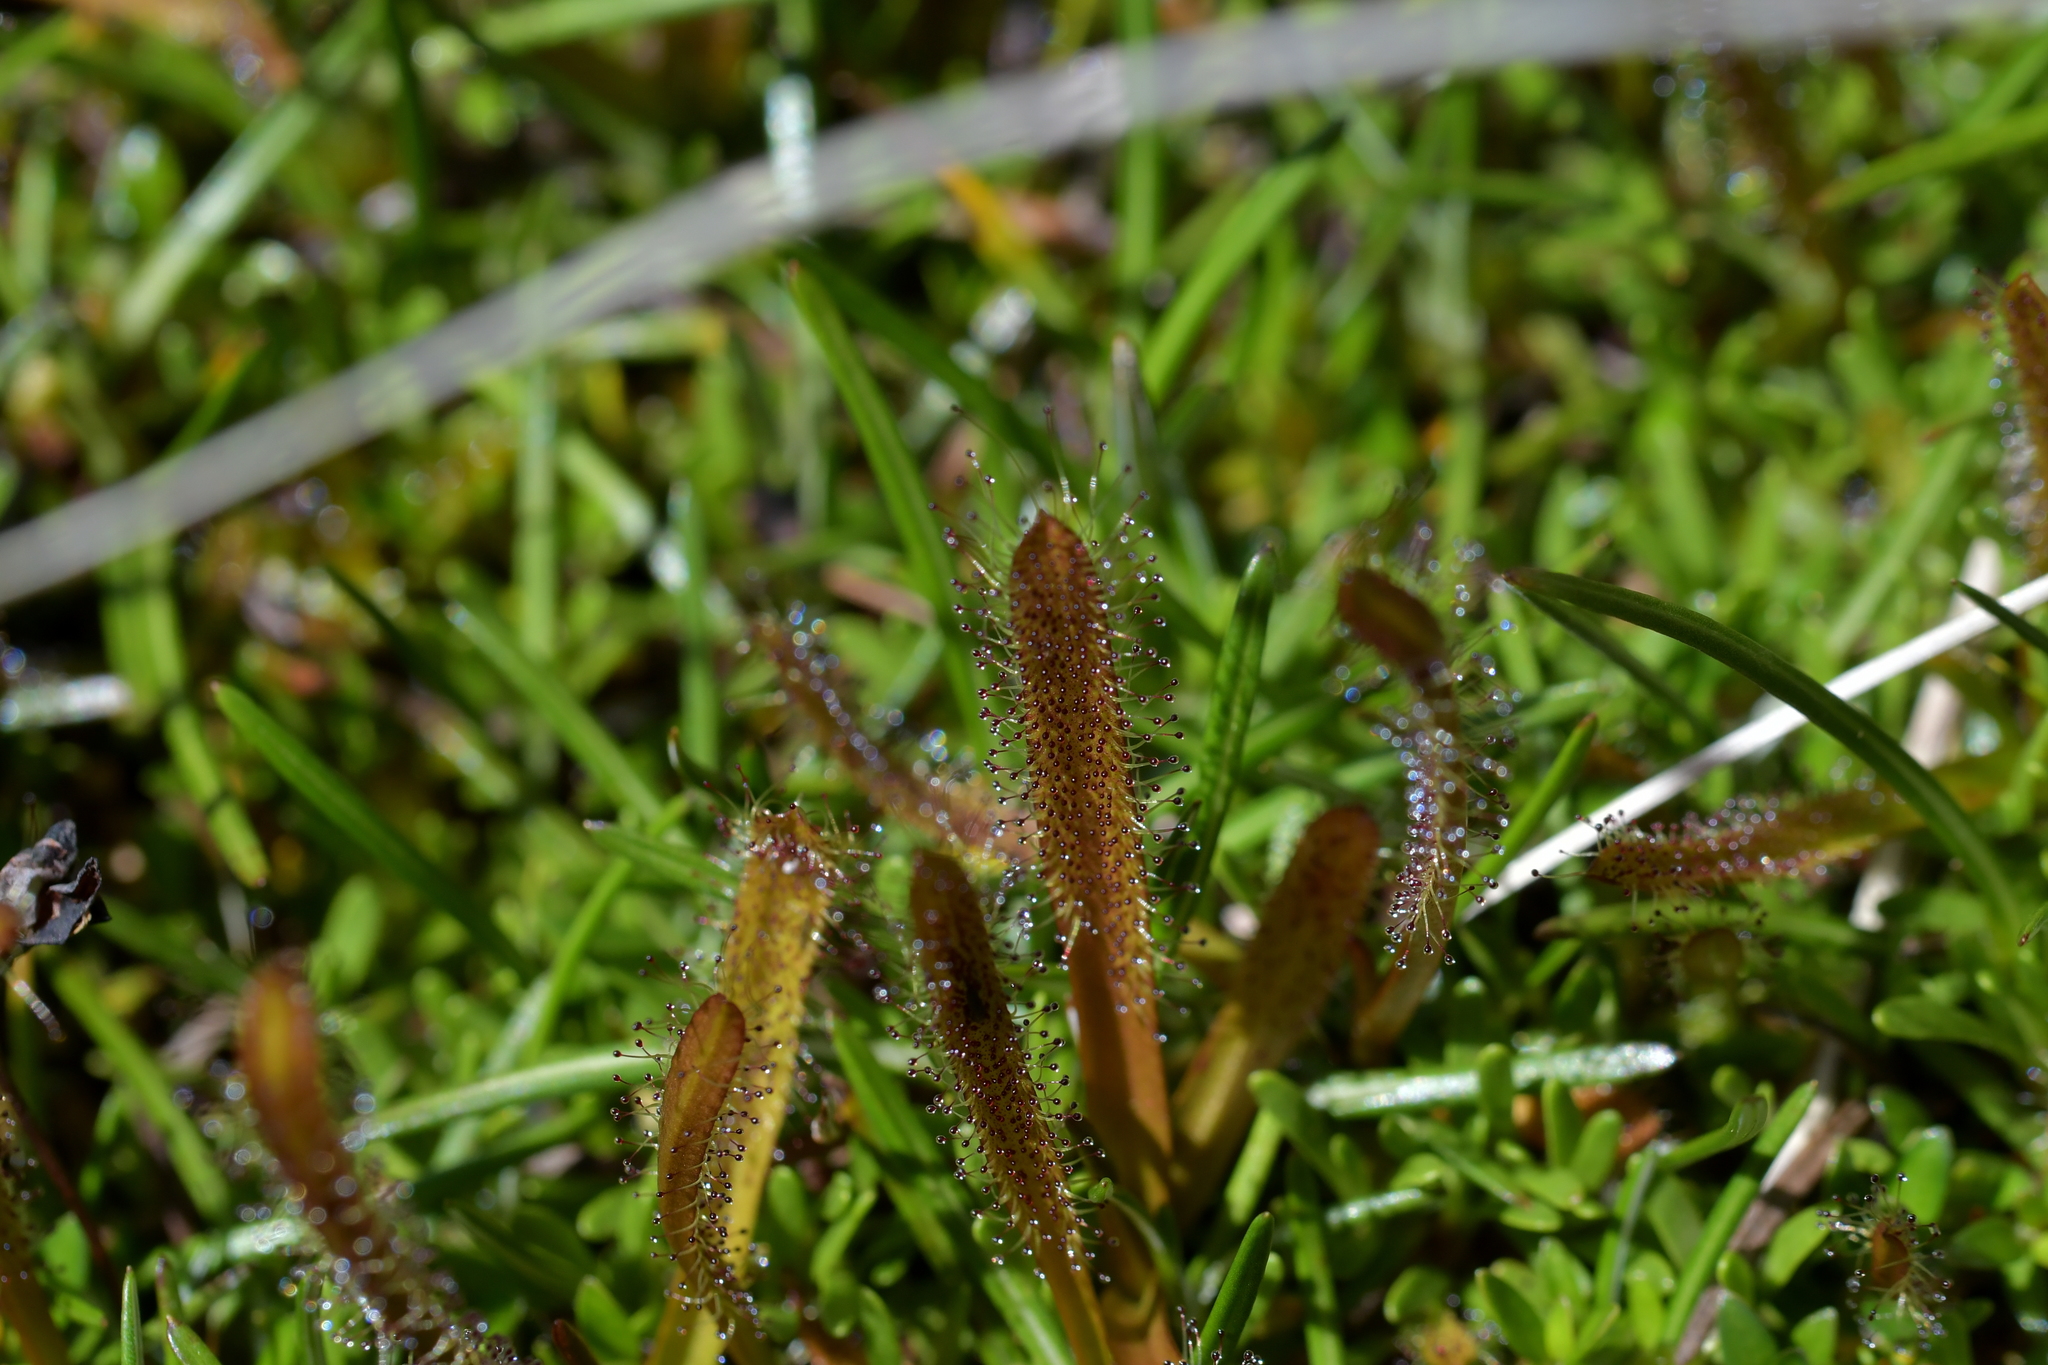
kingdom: Plantae
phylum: Tracheophyta
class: Magnoliopsida
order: Caryophyllales
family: Droseraceae
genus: Drosera
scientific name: Drosera arcturi
